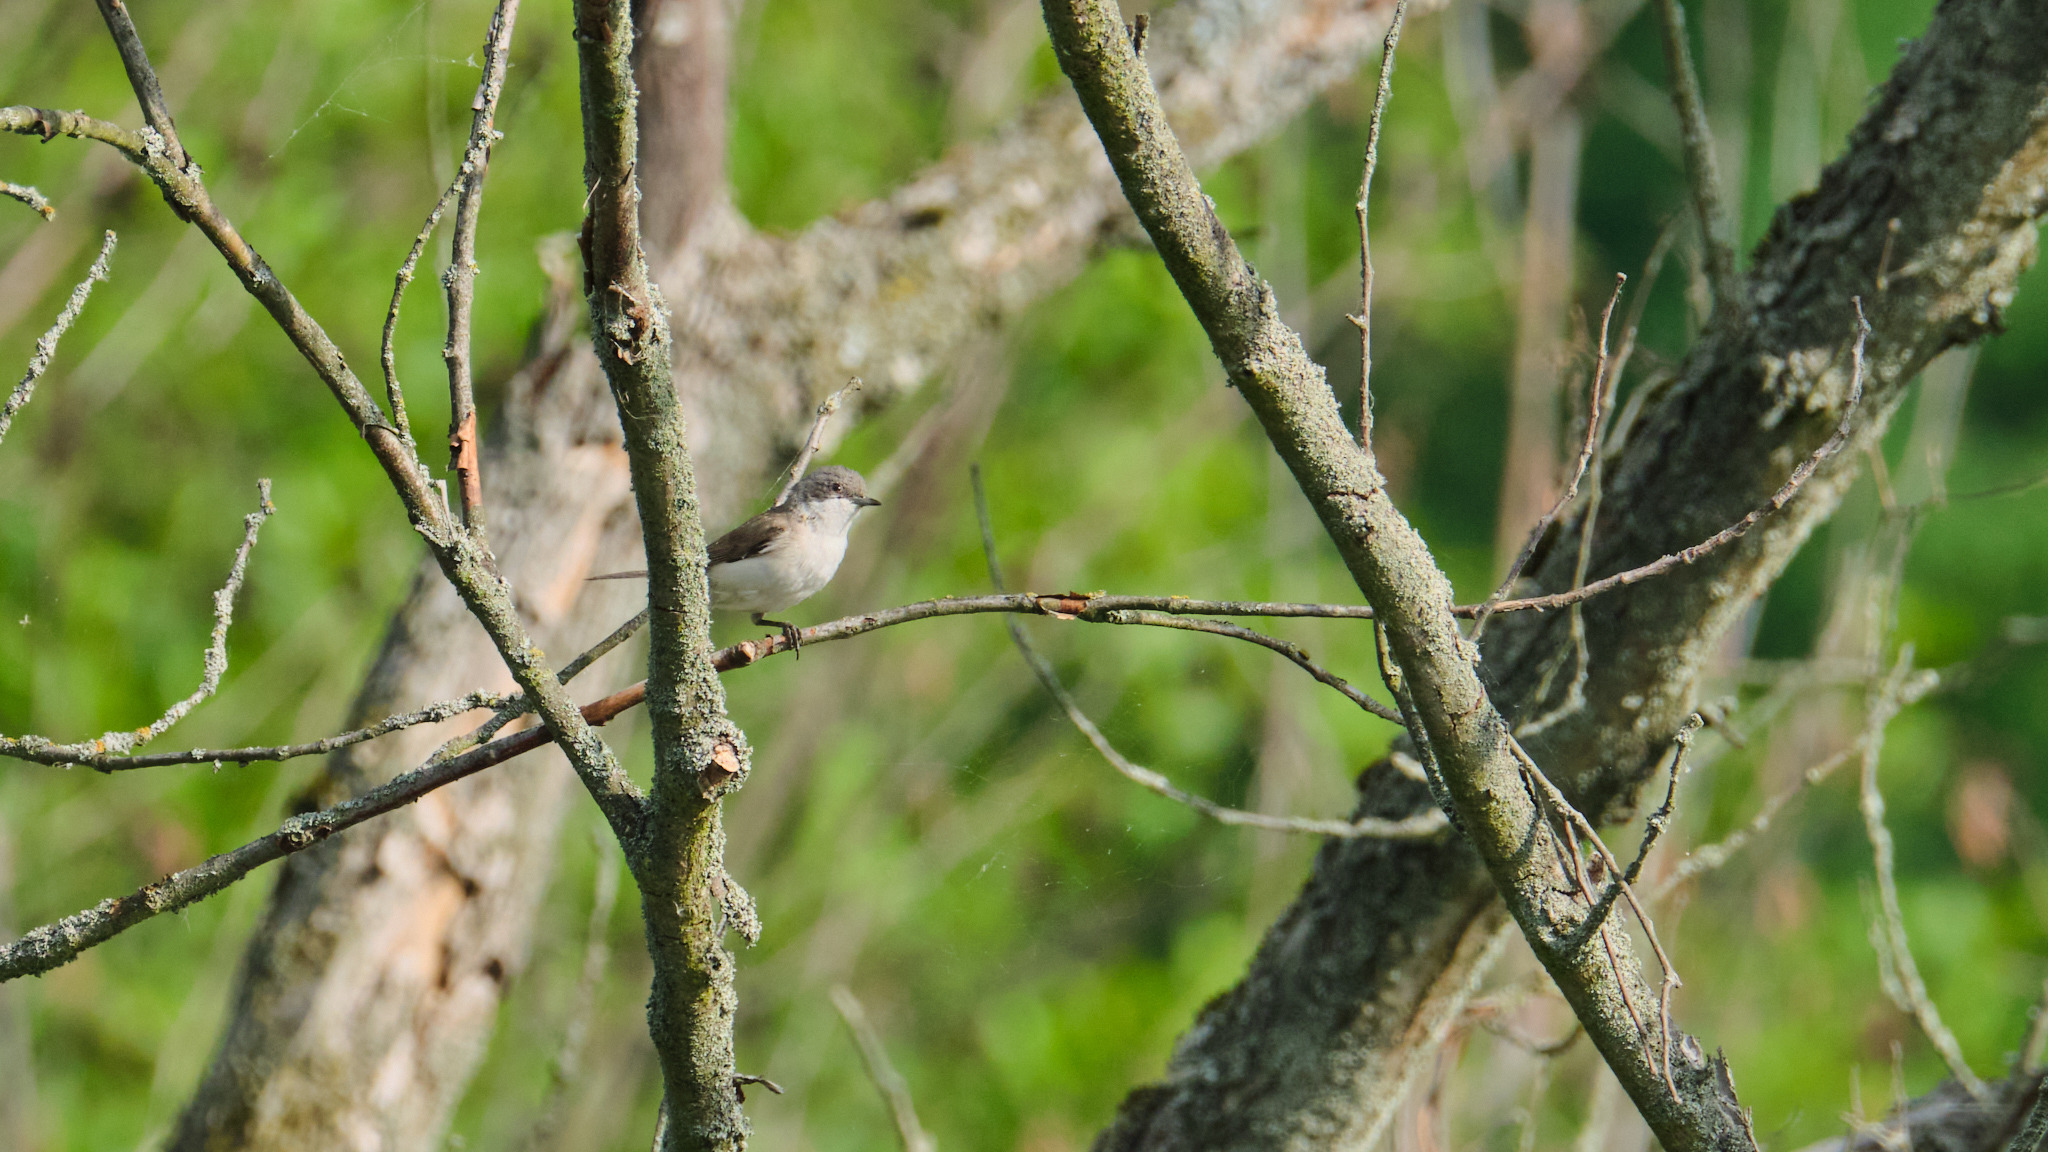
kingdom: Animalia
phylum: Chordata
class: Aves
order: Passeriformes
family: Sylviidae
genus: Sylvia
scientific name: Sylvia curruca
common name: Lesser whitethroat
